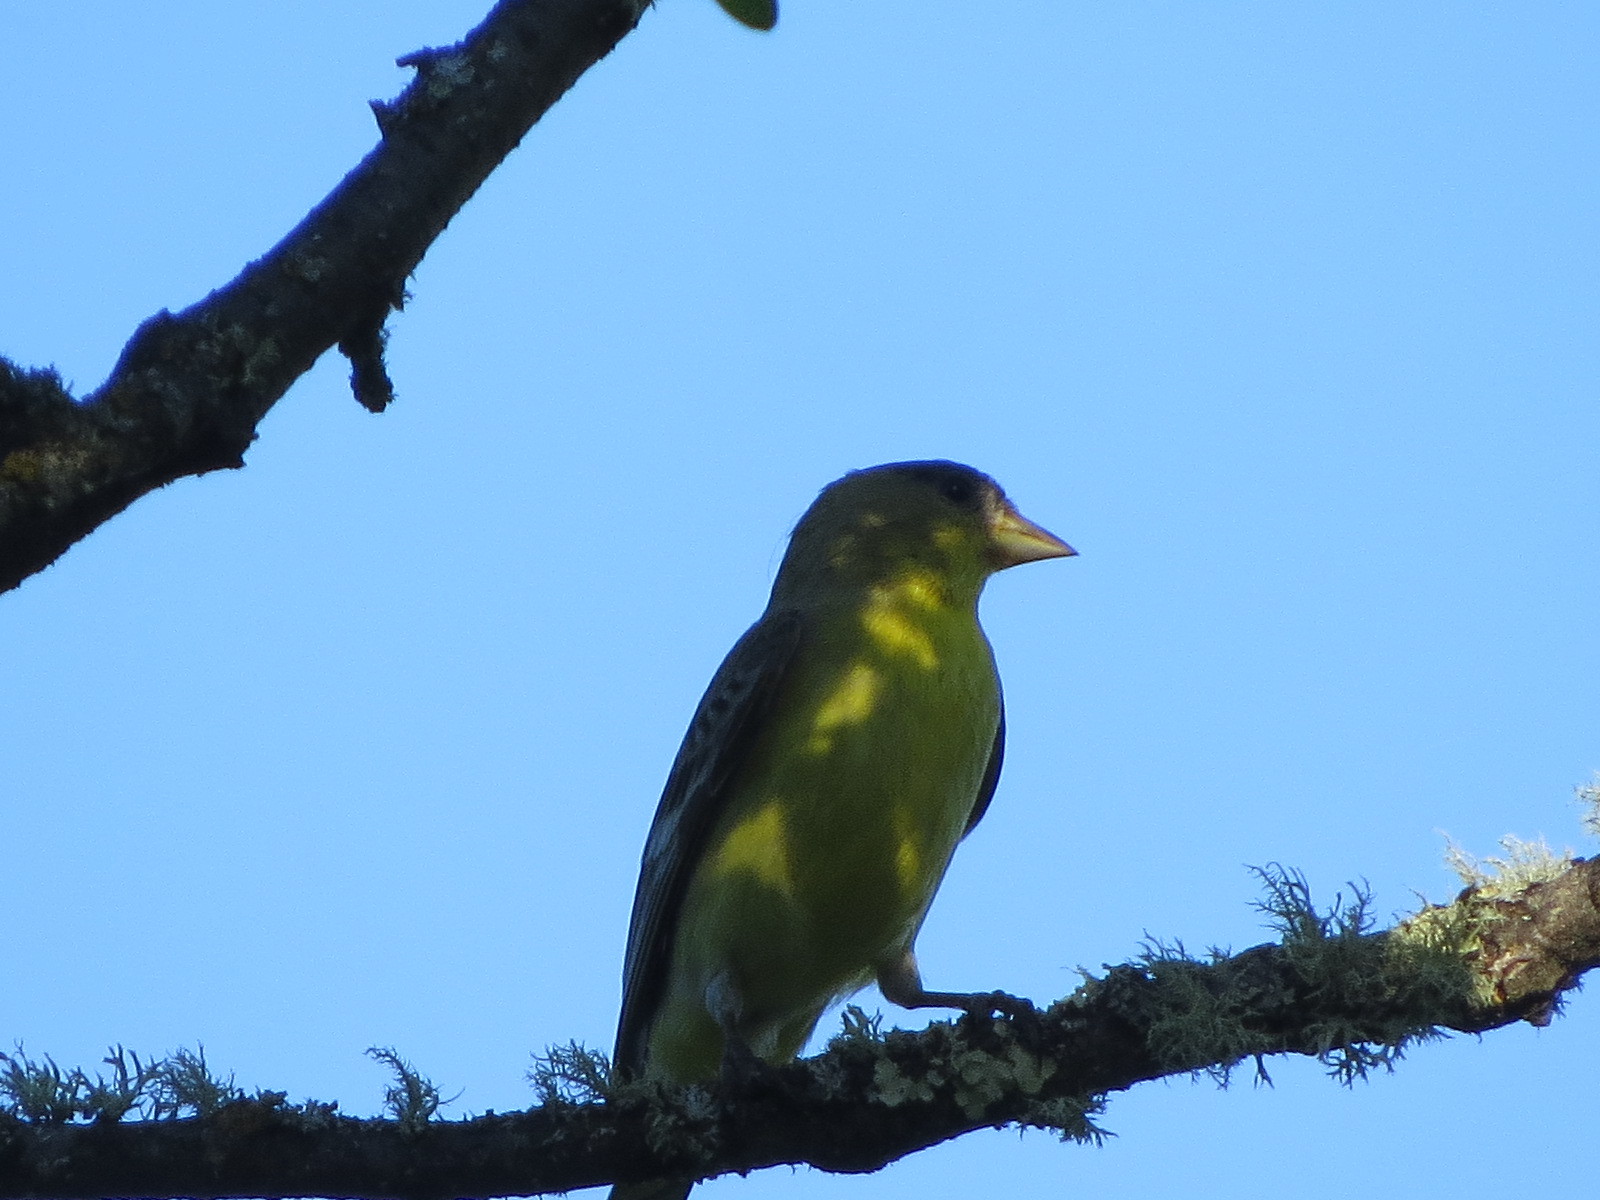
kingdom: Animalia
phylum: Chordata
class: Aves
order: Passeriformes
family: Fringillidae
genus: Spinus
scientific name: Spinus psaltria
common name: Lesser goldfinch
